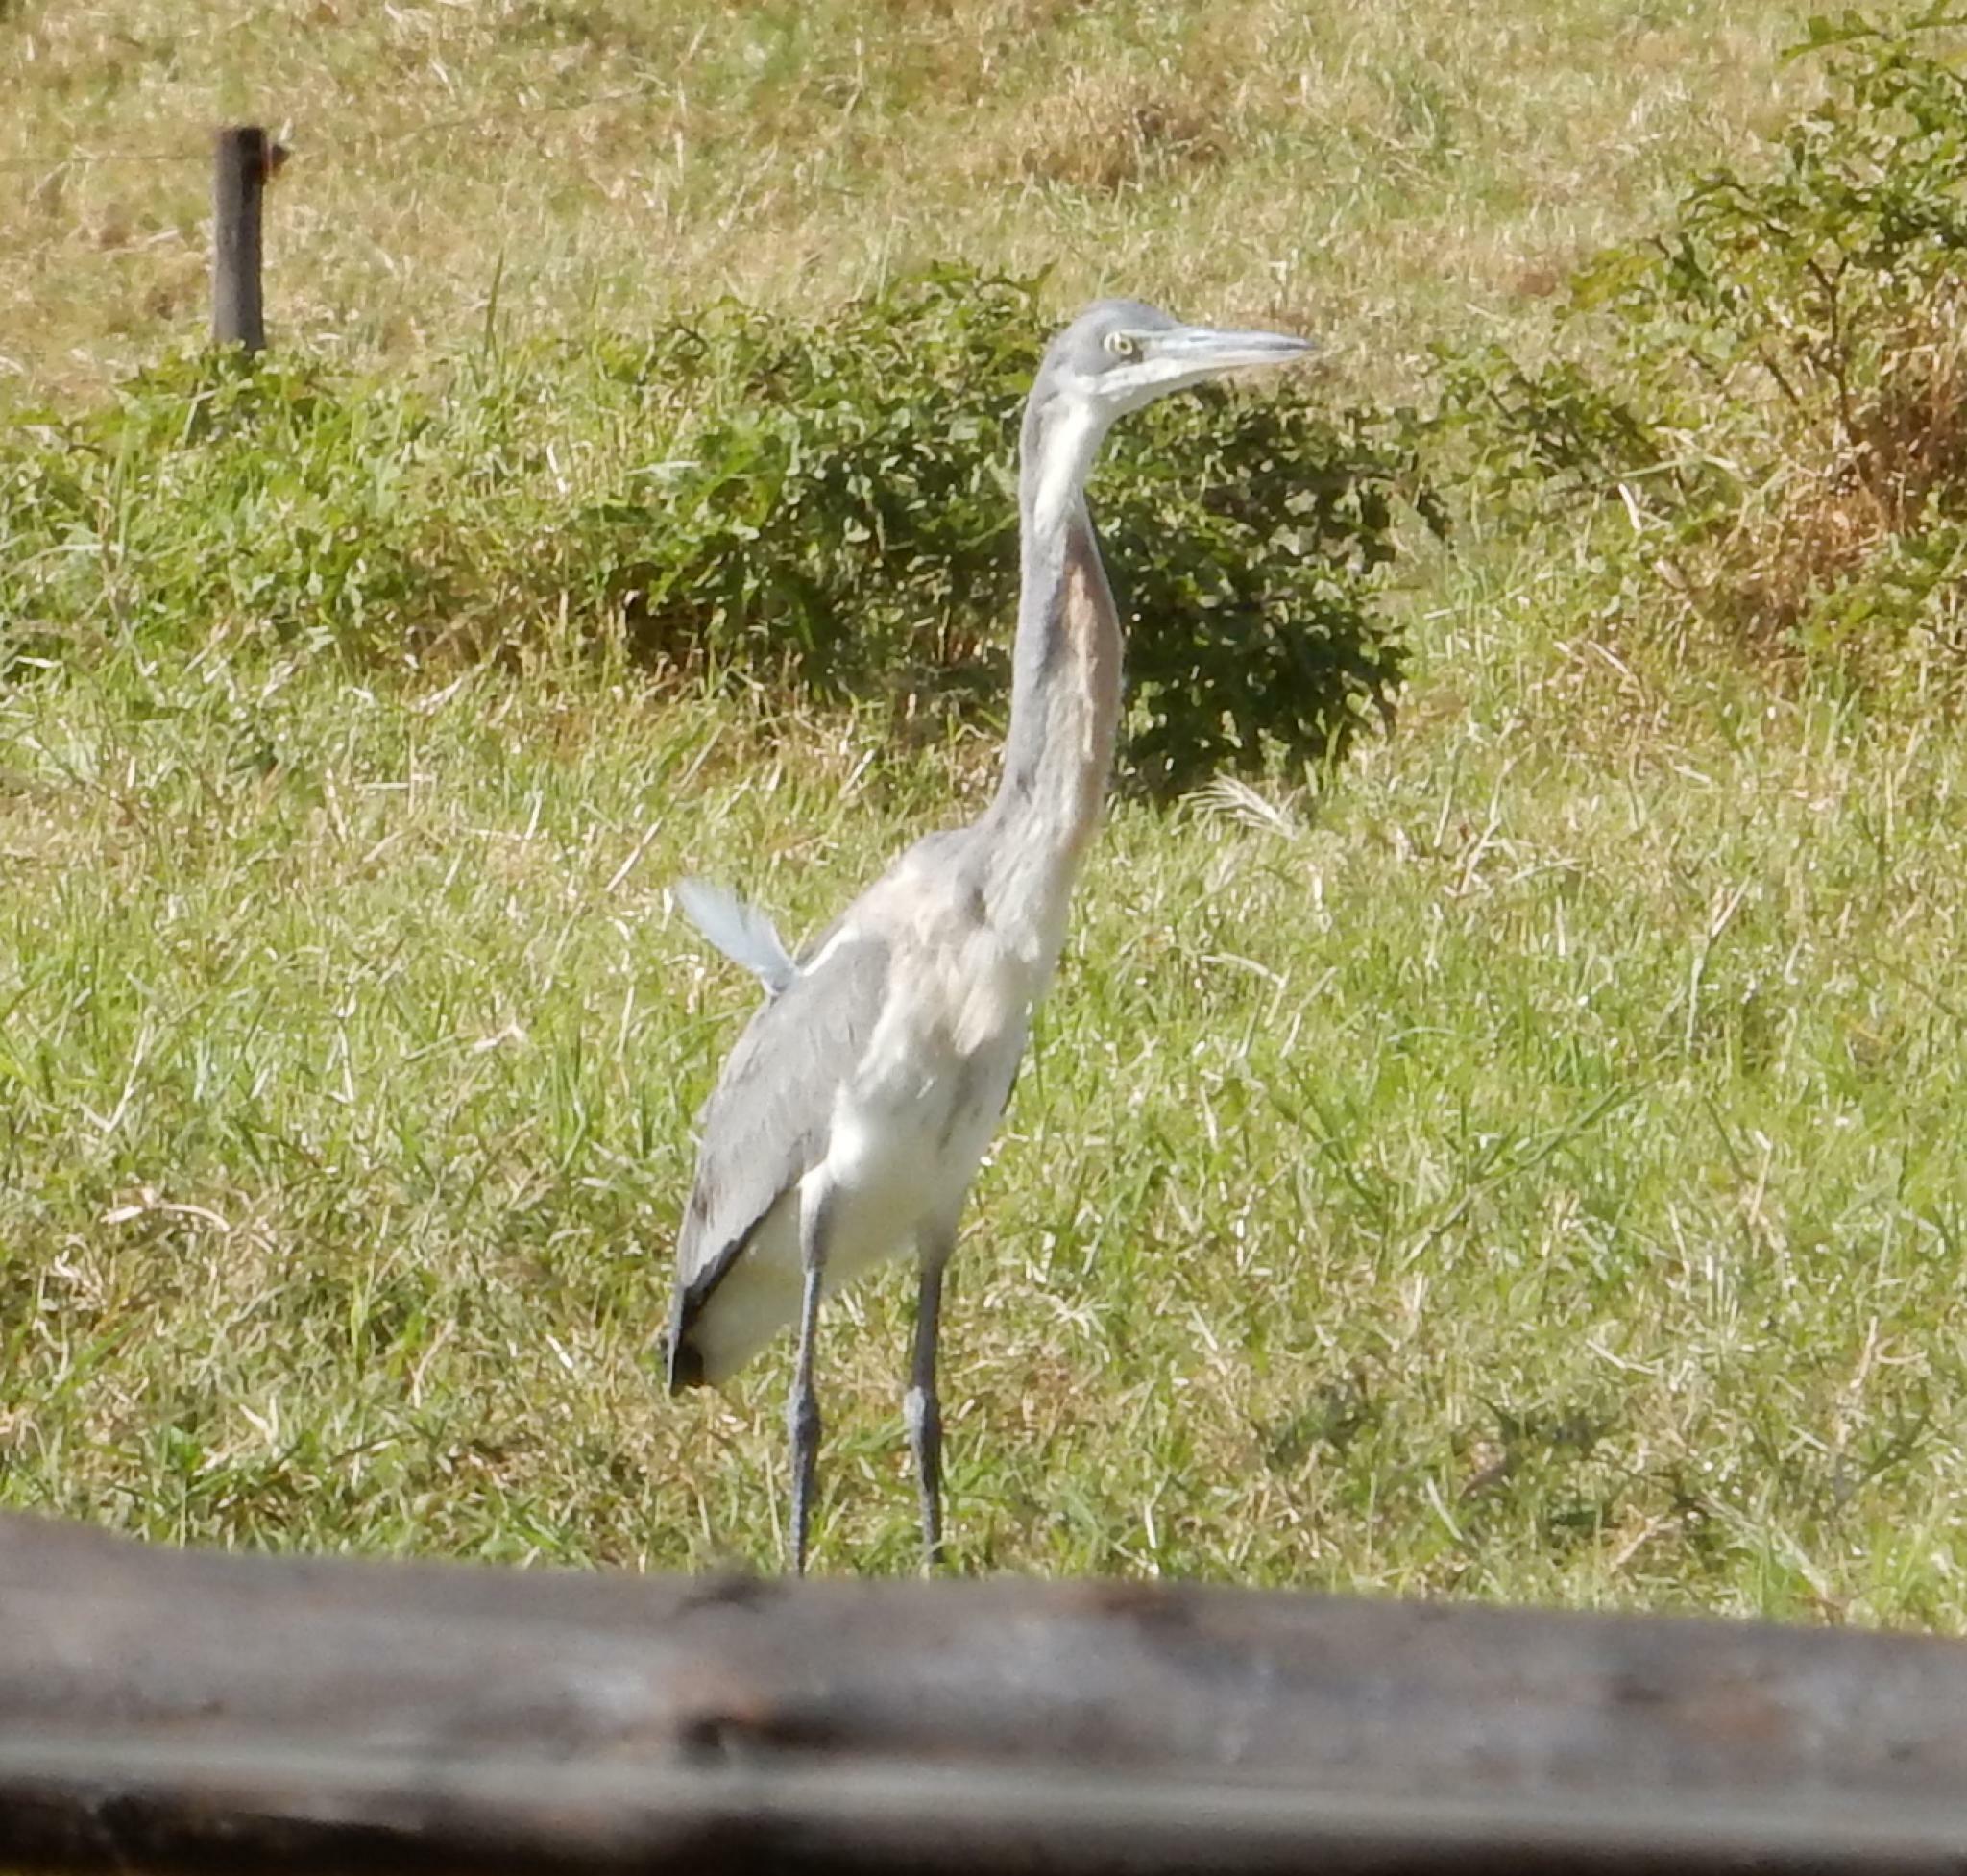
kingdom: Animalia
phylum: Chordata
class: Aves
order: Pelecaniformes
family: Ardeidae
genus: Ardea
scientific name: Ardea melanocephala
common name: Black-headed heron
